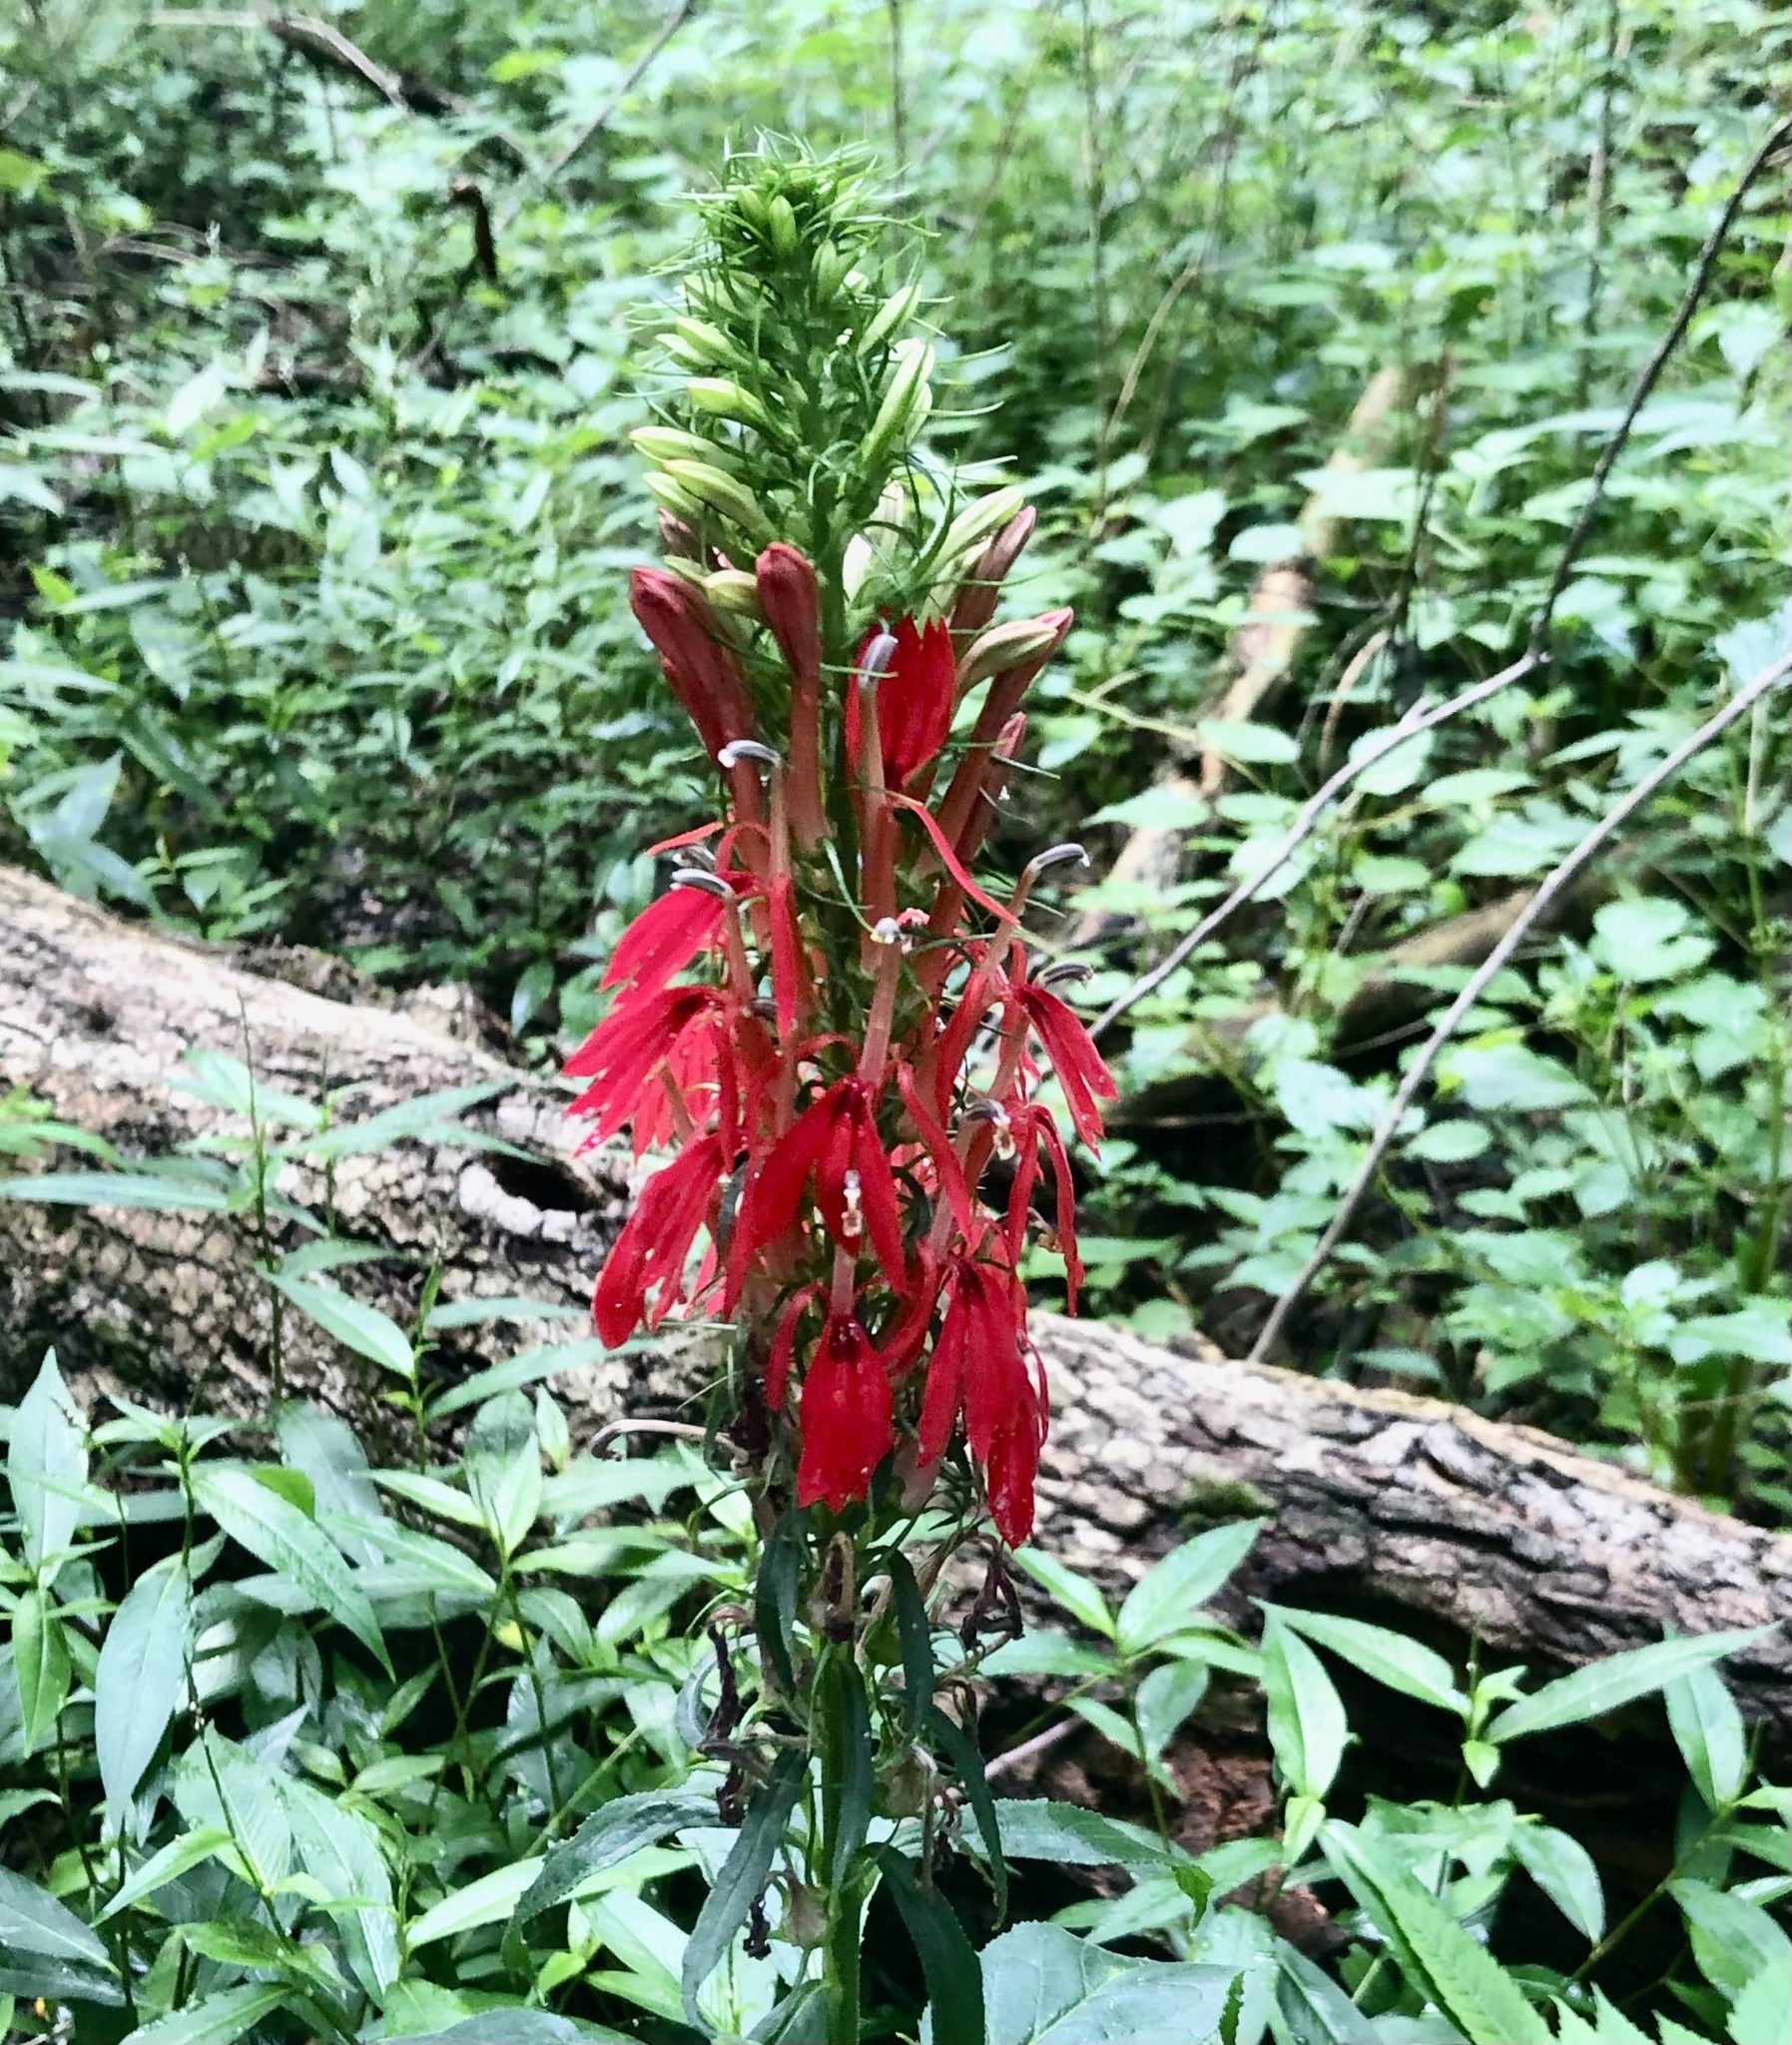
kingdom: Plantae
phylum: Tracheophyta
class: Magnoliopsida
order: Asterales
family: Campanulaceae
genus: Lobelia
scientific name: Lobelia cardinalis
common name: Cardinal flower
